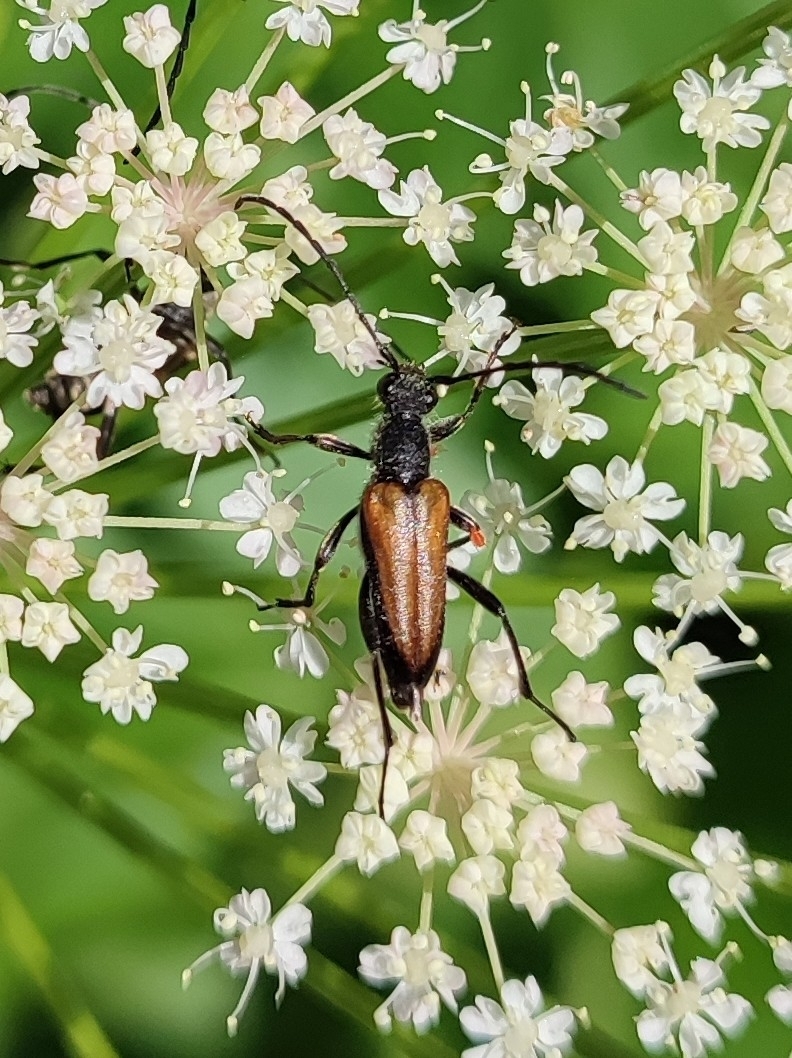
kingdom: Animalia
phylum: Arthropoda
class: Insecta
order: Coleoptera
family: Cerambycidae
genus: Anastrangalia
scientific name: Anastrangalia dubia
